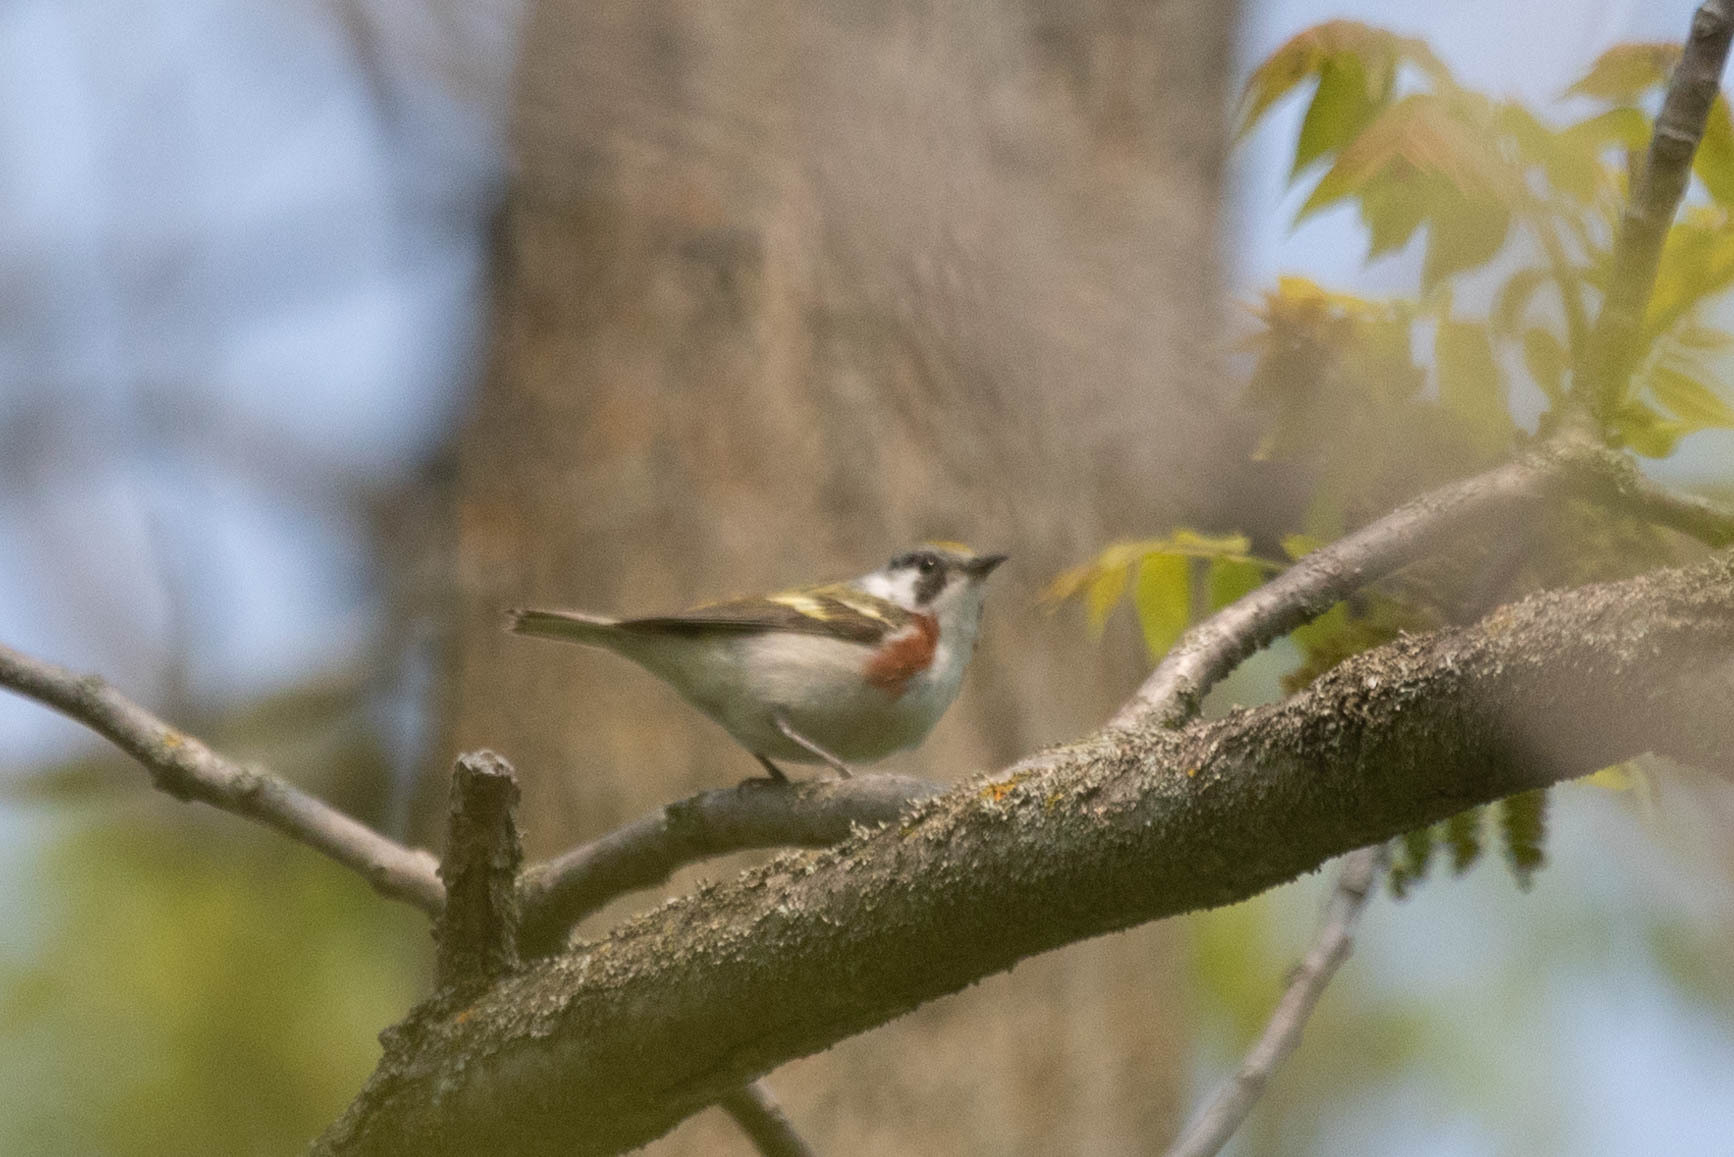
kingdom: Animalia
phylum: Chordata
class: Aves
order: Passeriformes
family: Parulidae
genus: Setophaga
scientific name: Setophaga pensylvanica
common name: Chestnut-sided warbler
